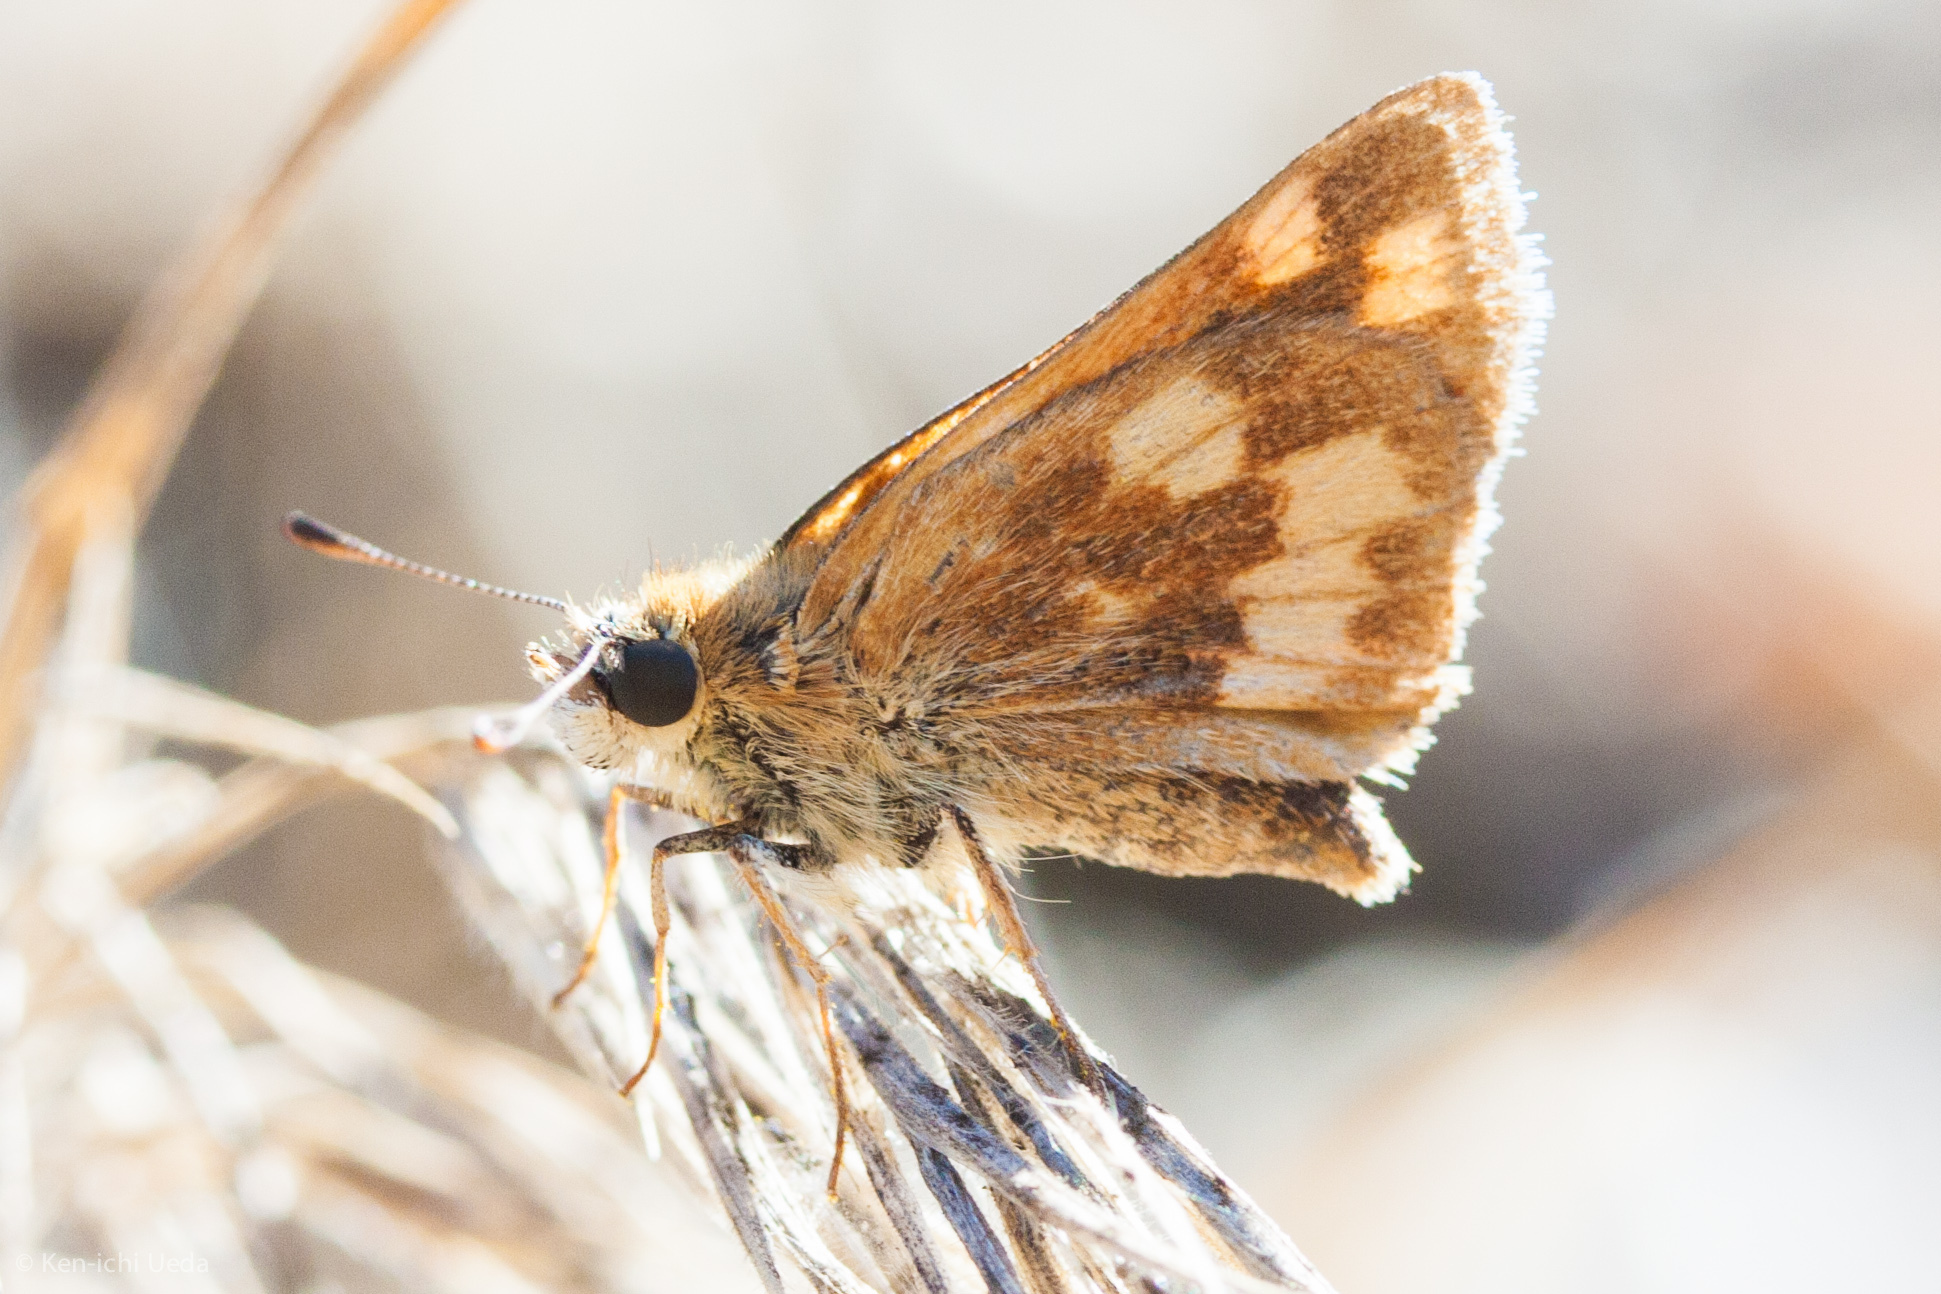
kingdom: Animalia
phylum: Arthropoda
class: Insecta
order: Lepidoptera
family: Hesperiidae
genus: Ochlodes
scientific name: Ochlodes sylvanoides
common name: Woodland skipper
